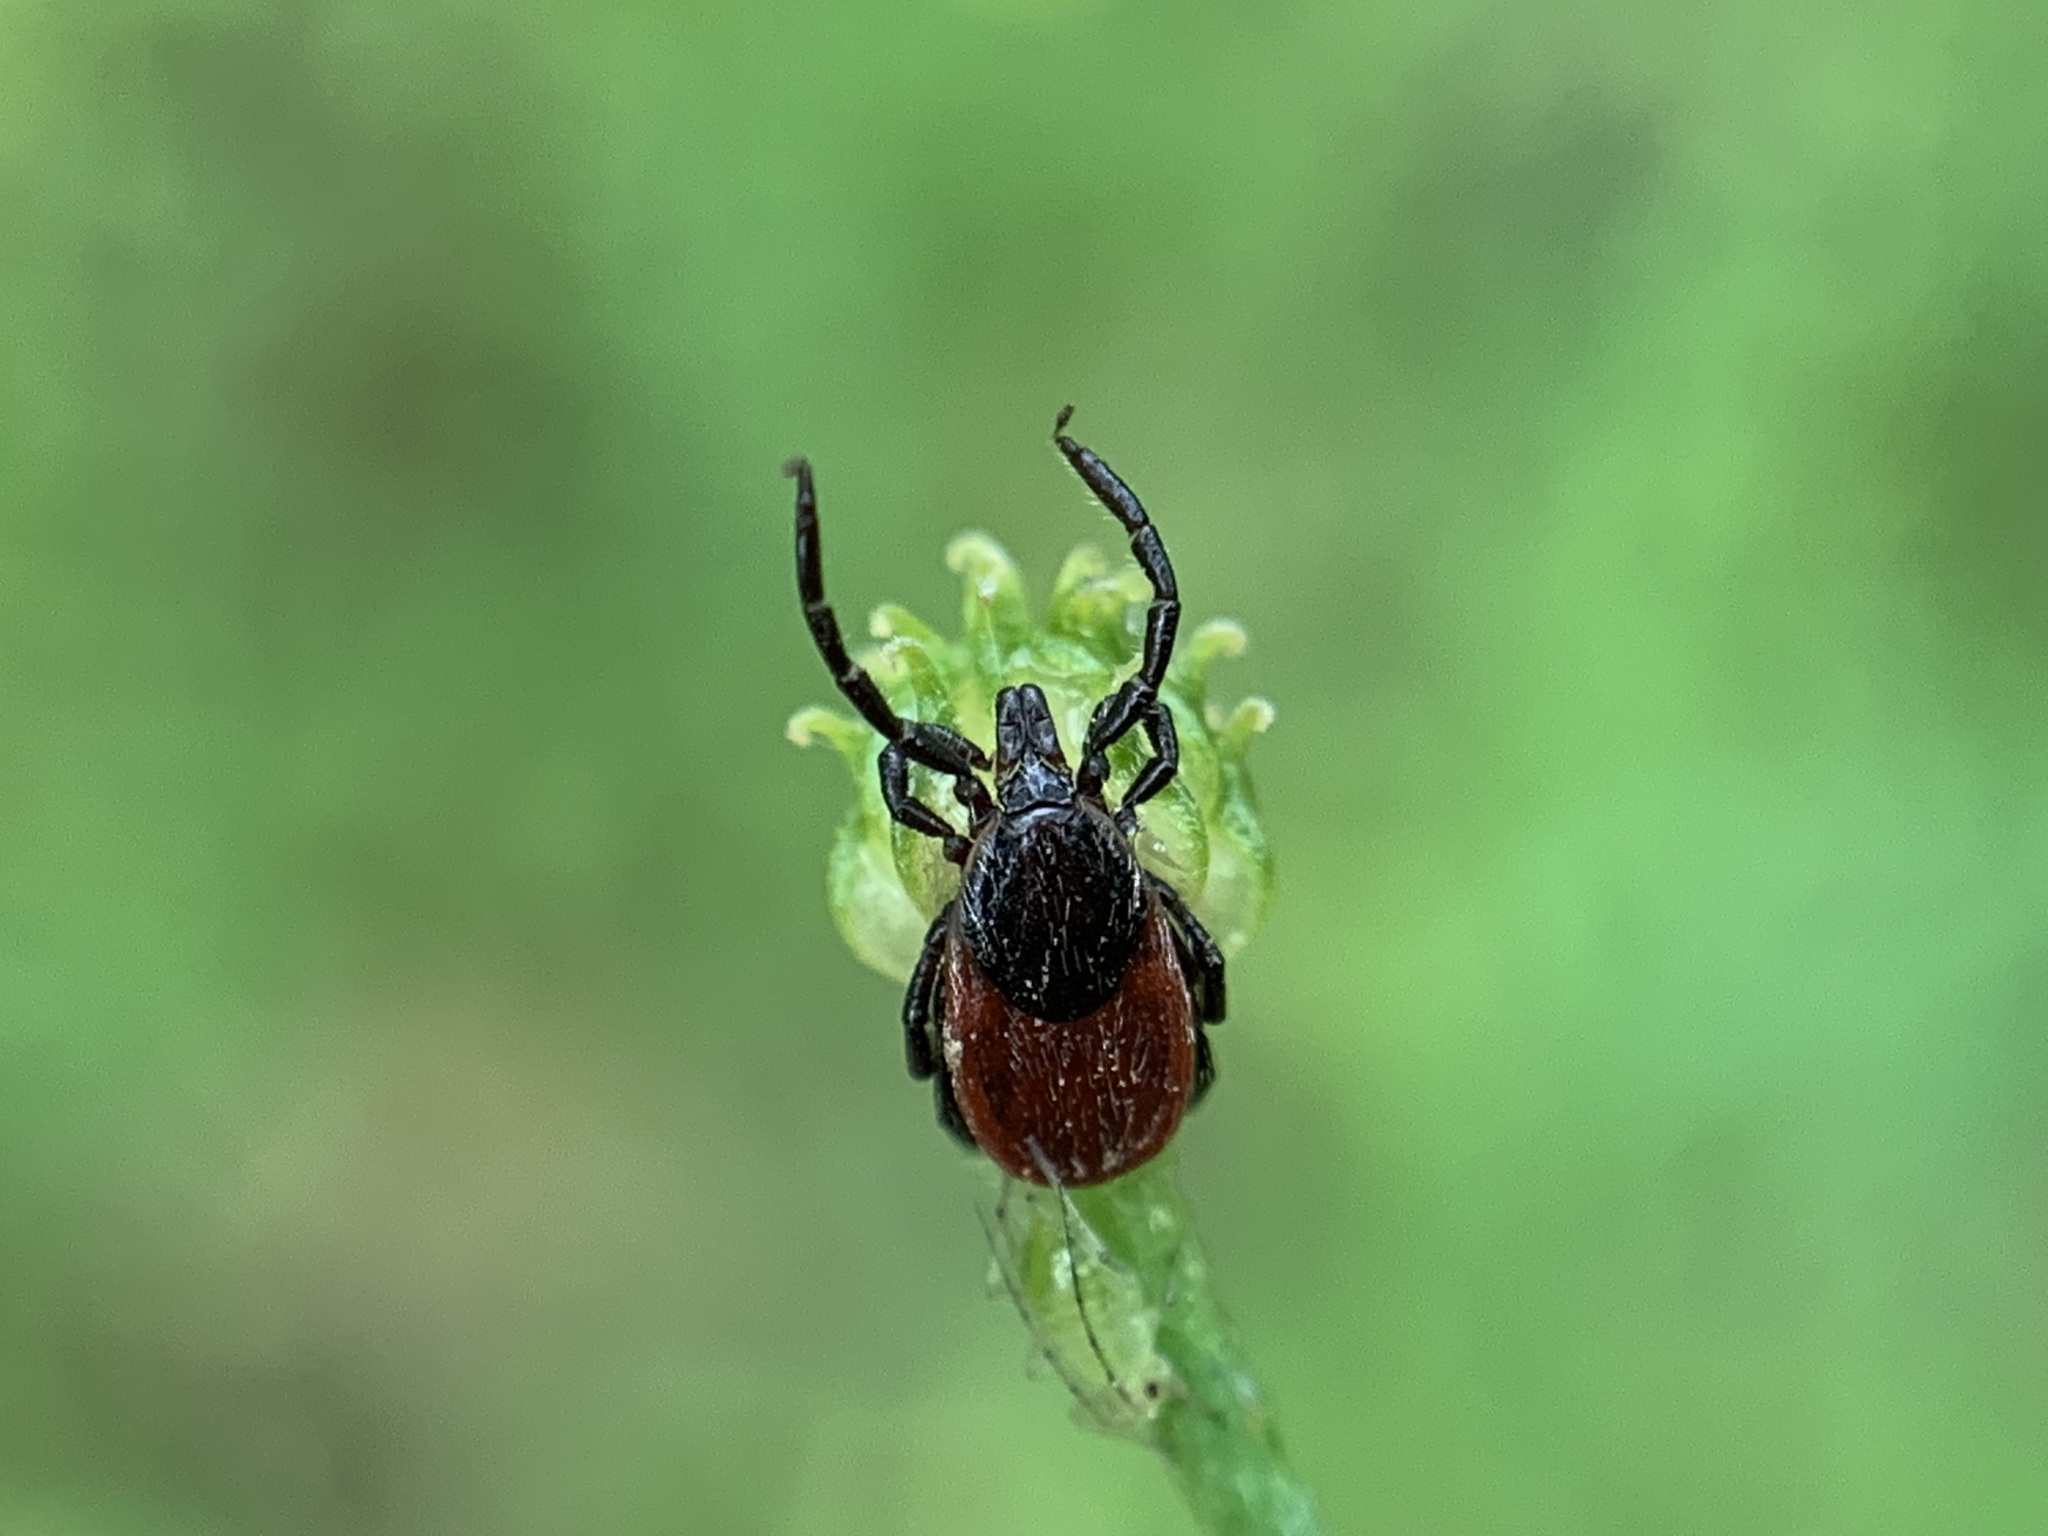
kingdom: Animalia
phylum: Arthropoda
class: Arachnida
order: Ixodida
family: Ixodidae
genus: Ixodes
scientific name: Ixodes pacificus
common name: California black-legged tick
